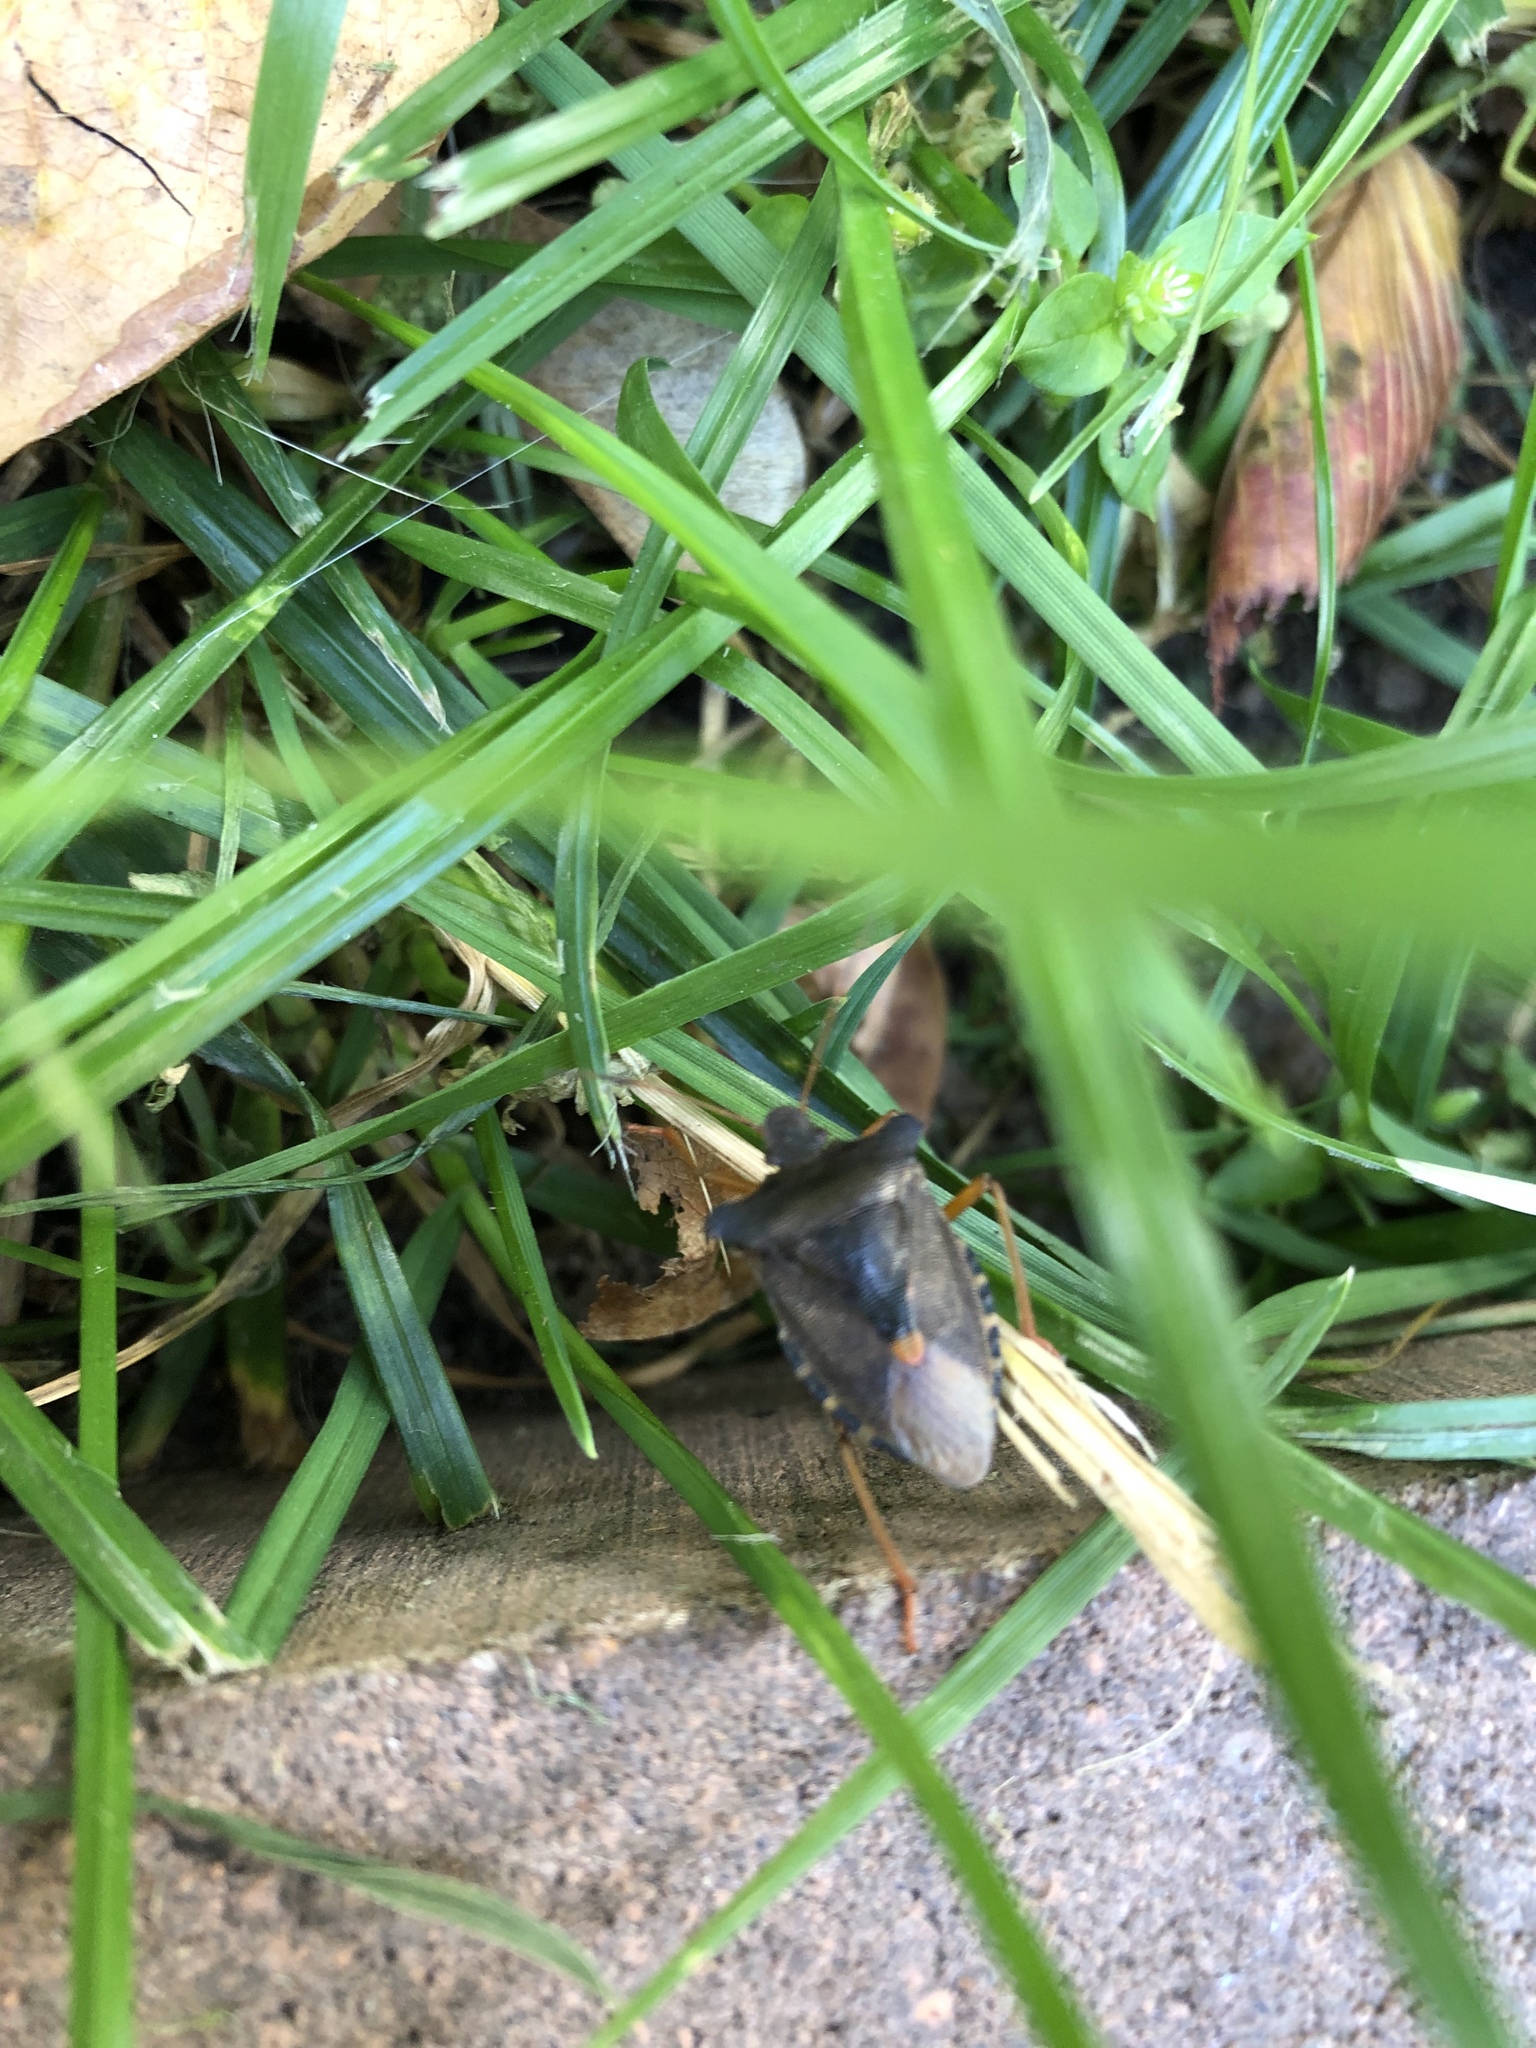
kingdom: Animalia
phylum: Arthropoda
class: Insecta
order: Hemiptera
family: Pentatomidae
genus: Pentatoma
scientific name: Pentatoma rufipes
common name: Forest bug
